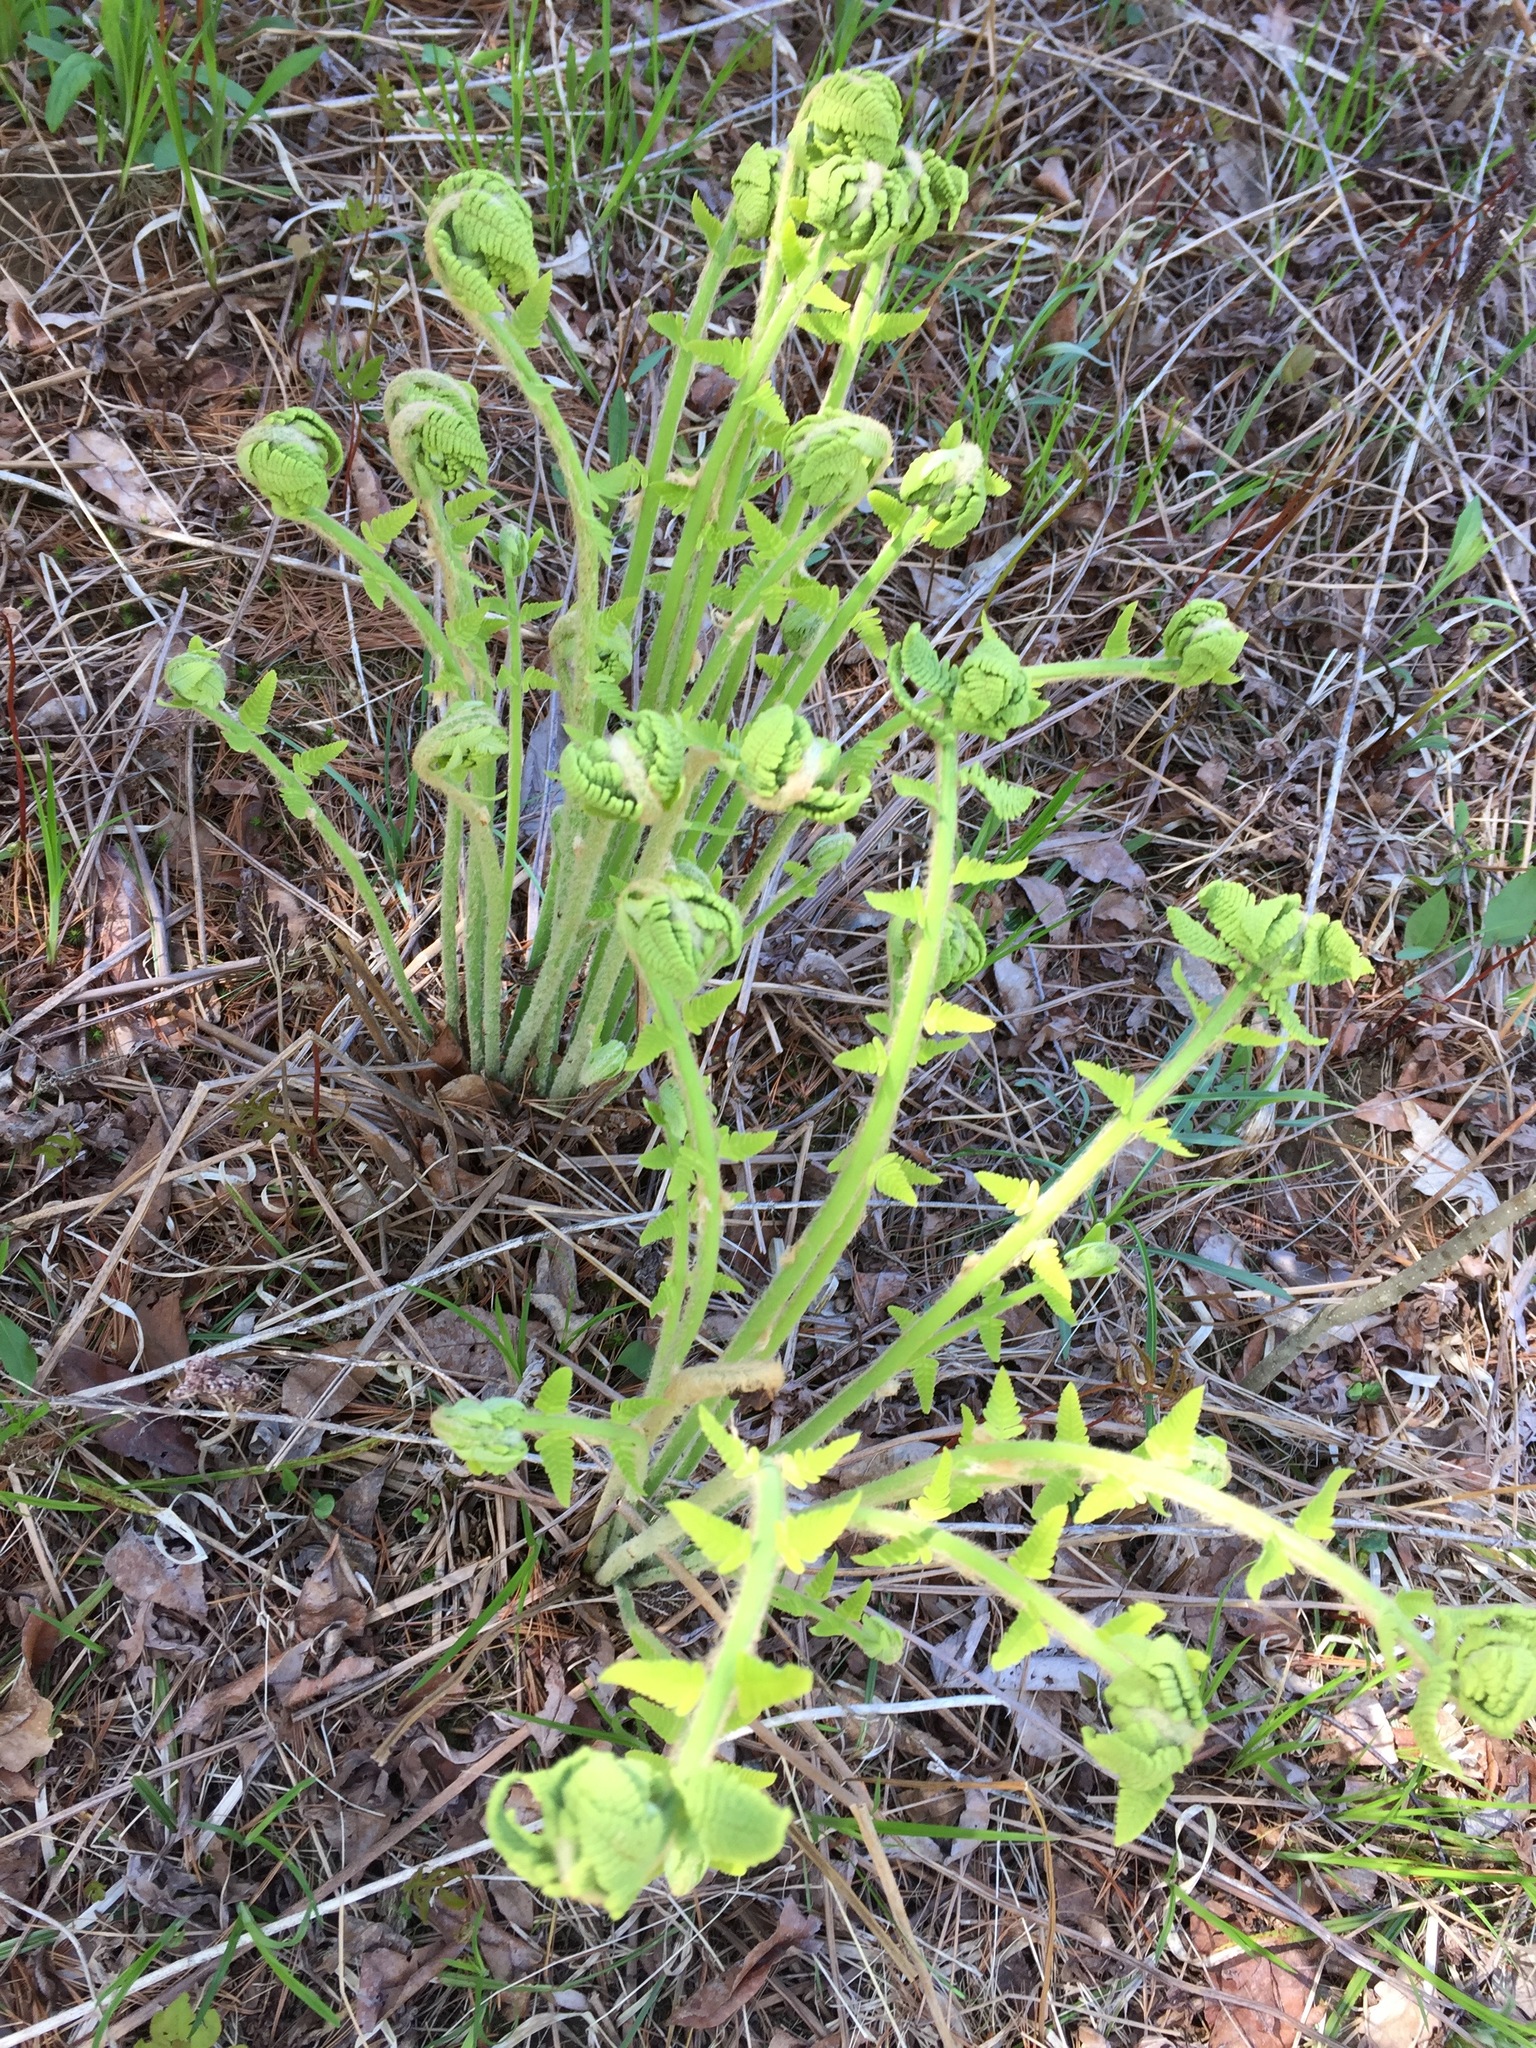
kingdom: Plantae
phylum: Tracheophyta
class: Polypodiopsida
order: Osmundales
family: Osmundaceae
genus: Claytosmunda
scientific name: Claytosmunda claytoniana
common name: Clayton's fern
